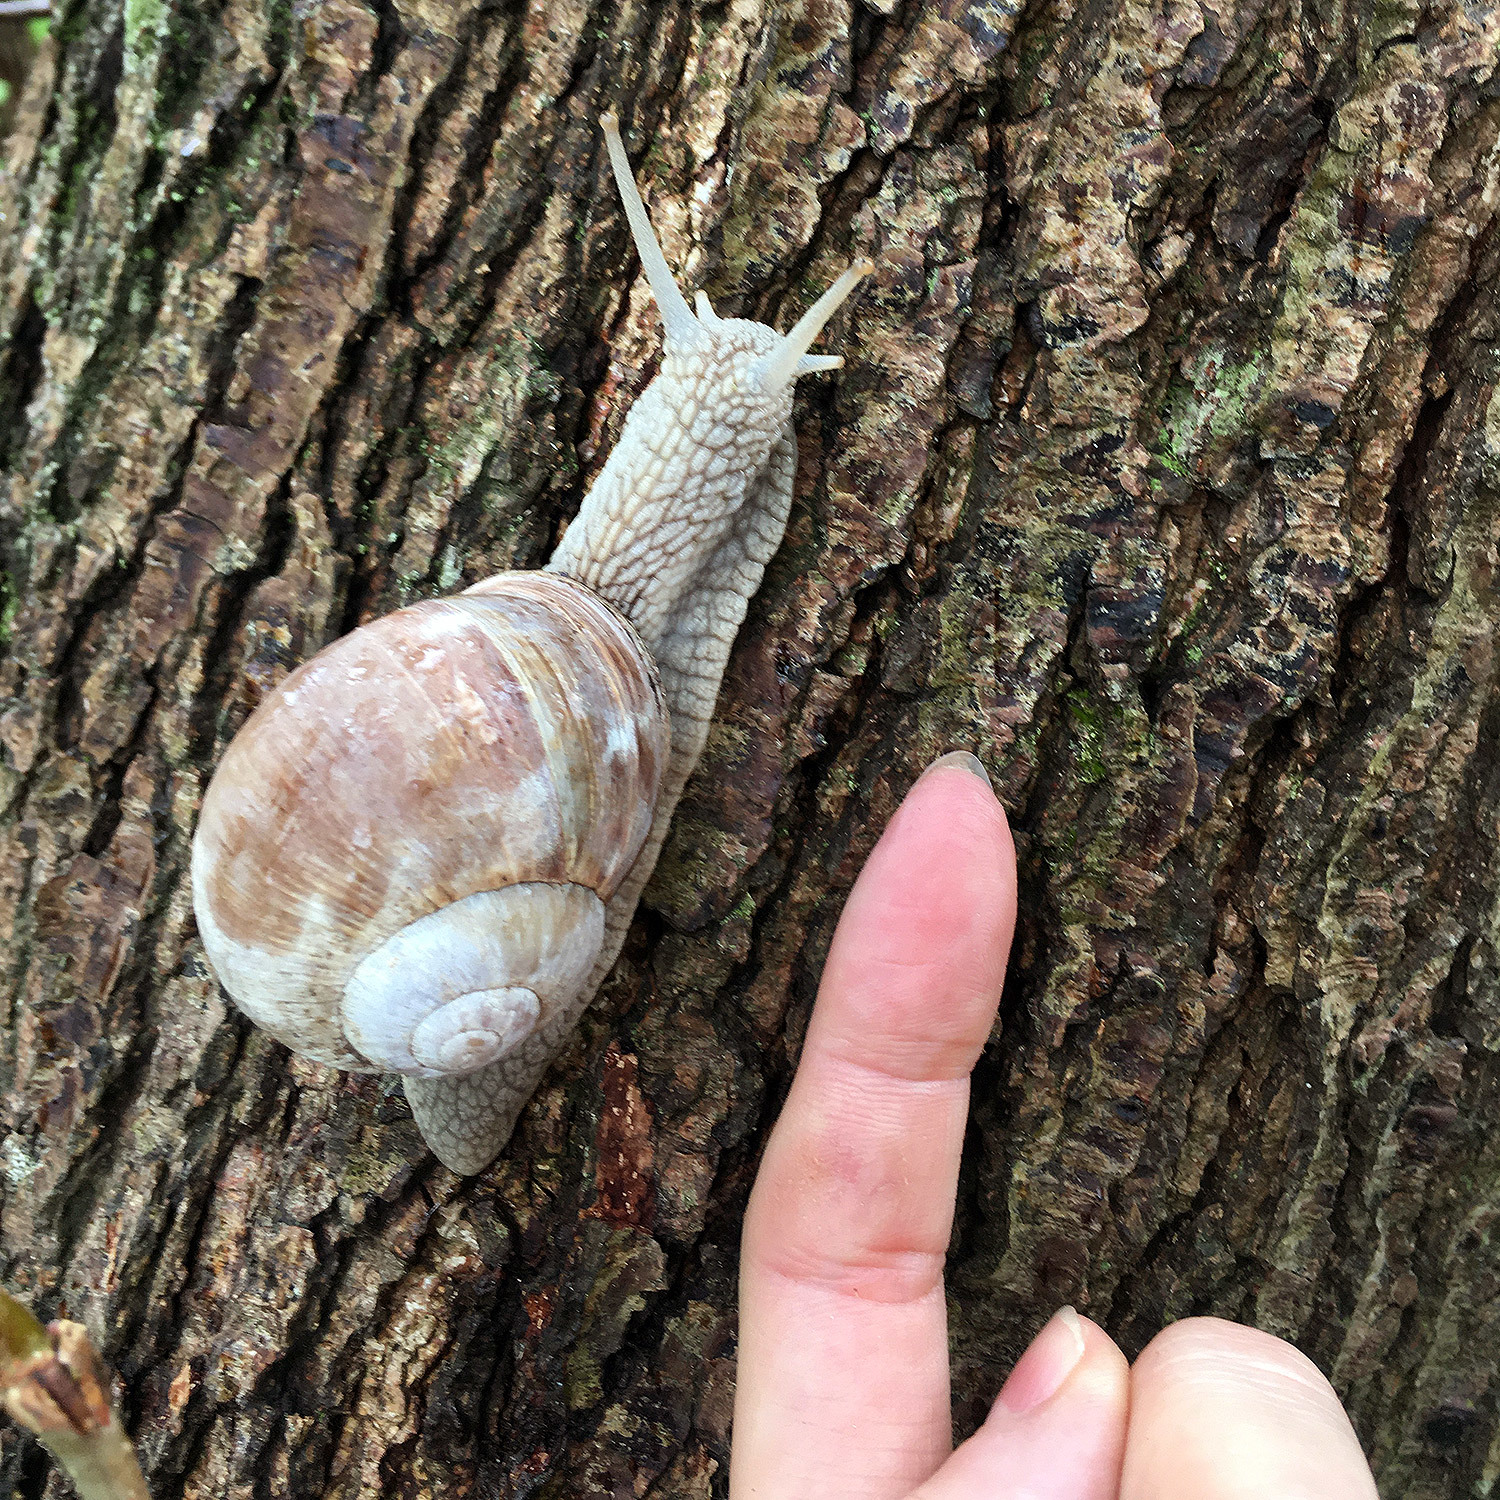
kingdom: Animalia
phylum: Mollusca
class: Gastropoda
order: Stylommatophora
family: Helicidae
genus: Helix
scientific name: Helix pomatia
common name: Roman snail
